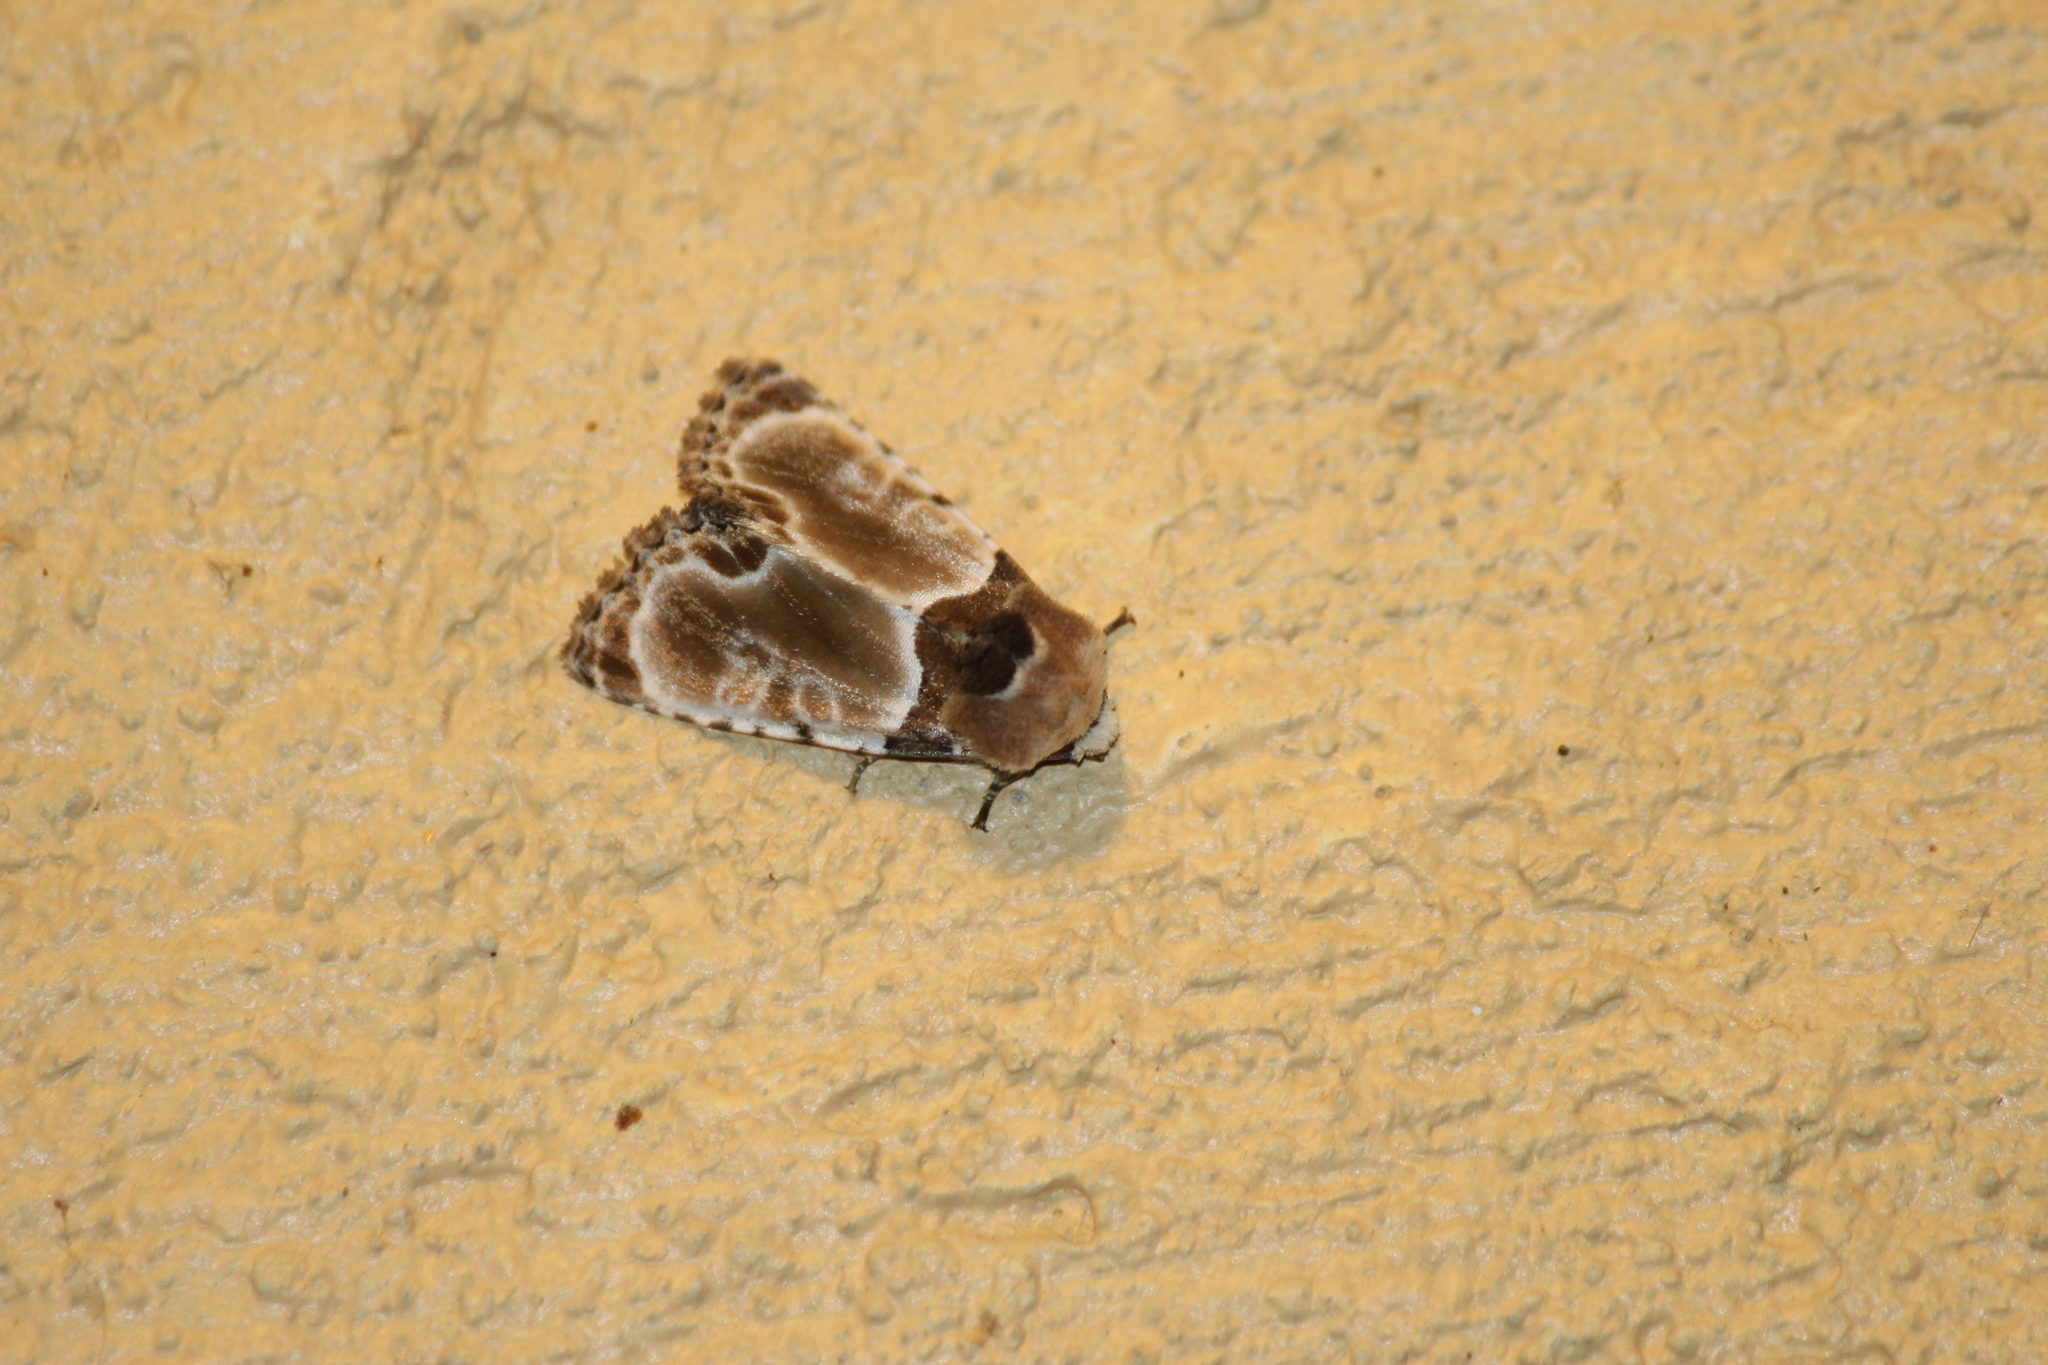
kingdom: Animalia
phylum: Arthropoda
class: Insecta
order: Lepidoptera
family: Noctuidae
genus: Thyatirodes
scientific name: Thyatirodes godalma
